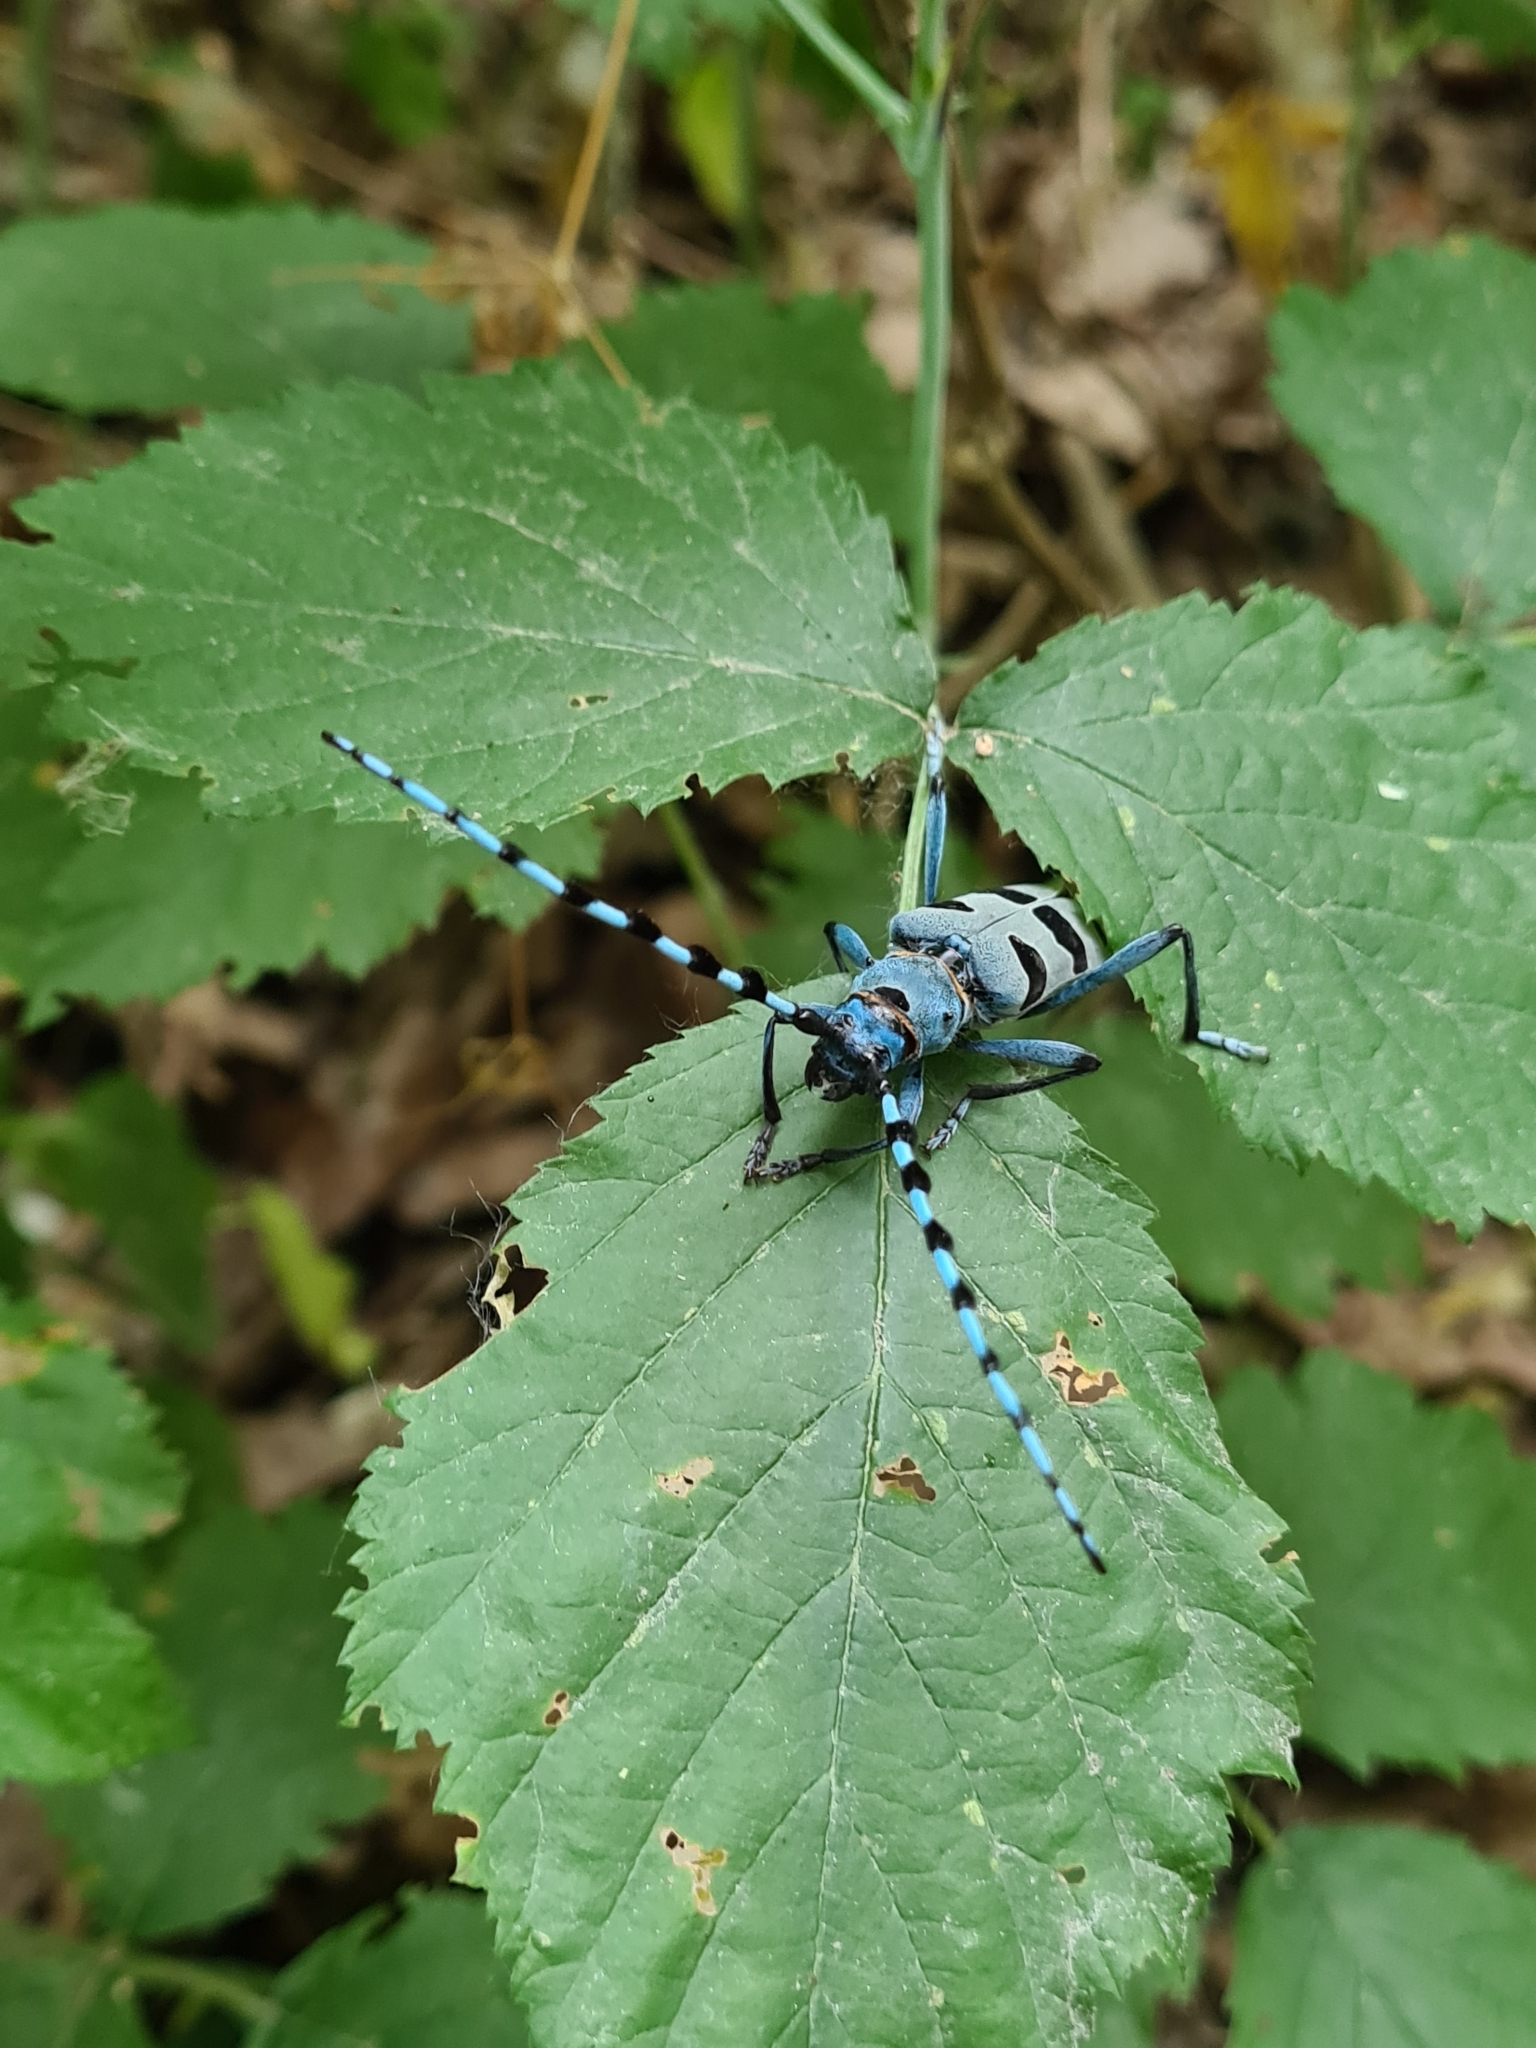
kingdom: Animalia
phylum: Arthropoda
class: Insecta
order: Coleoptera
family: Cerambycidae
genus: Rosalia
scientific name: Rosalia alpina
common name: Rosalia longicorn
